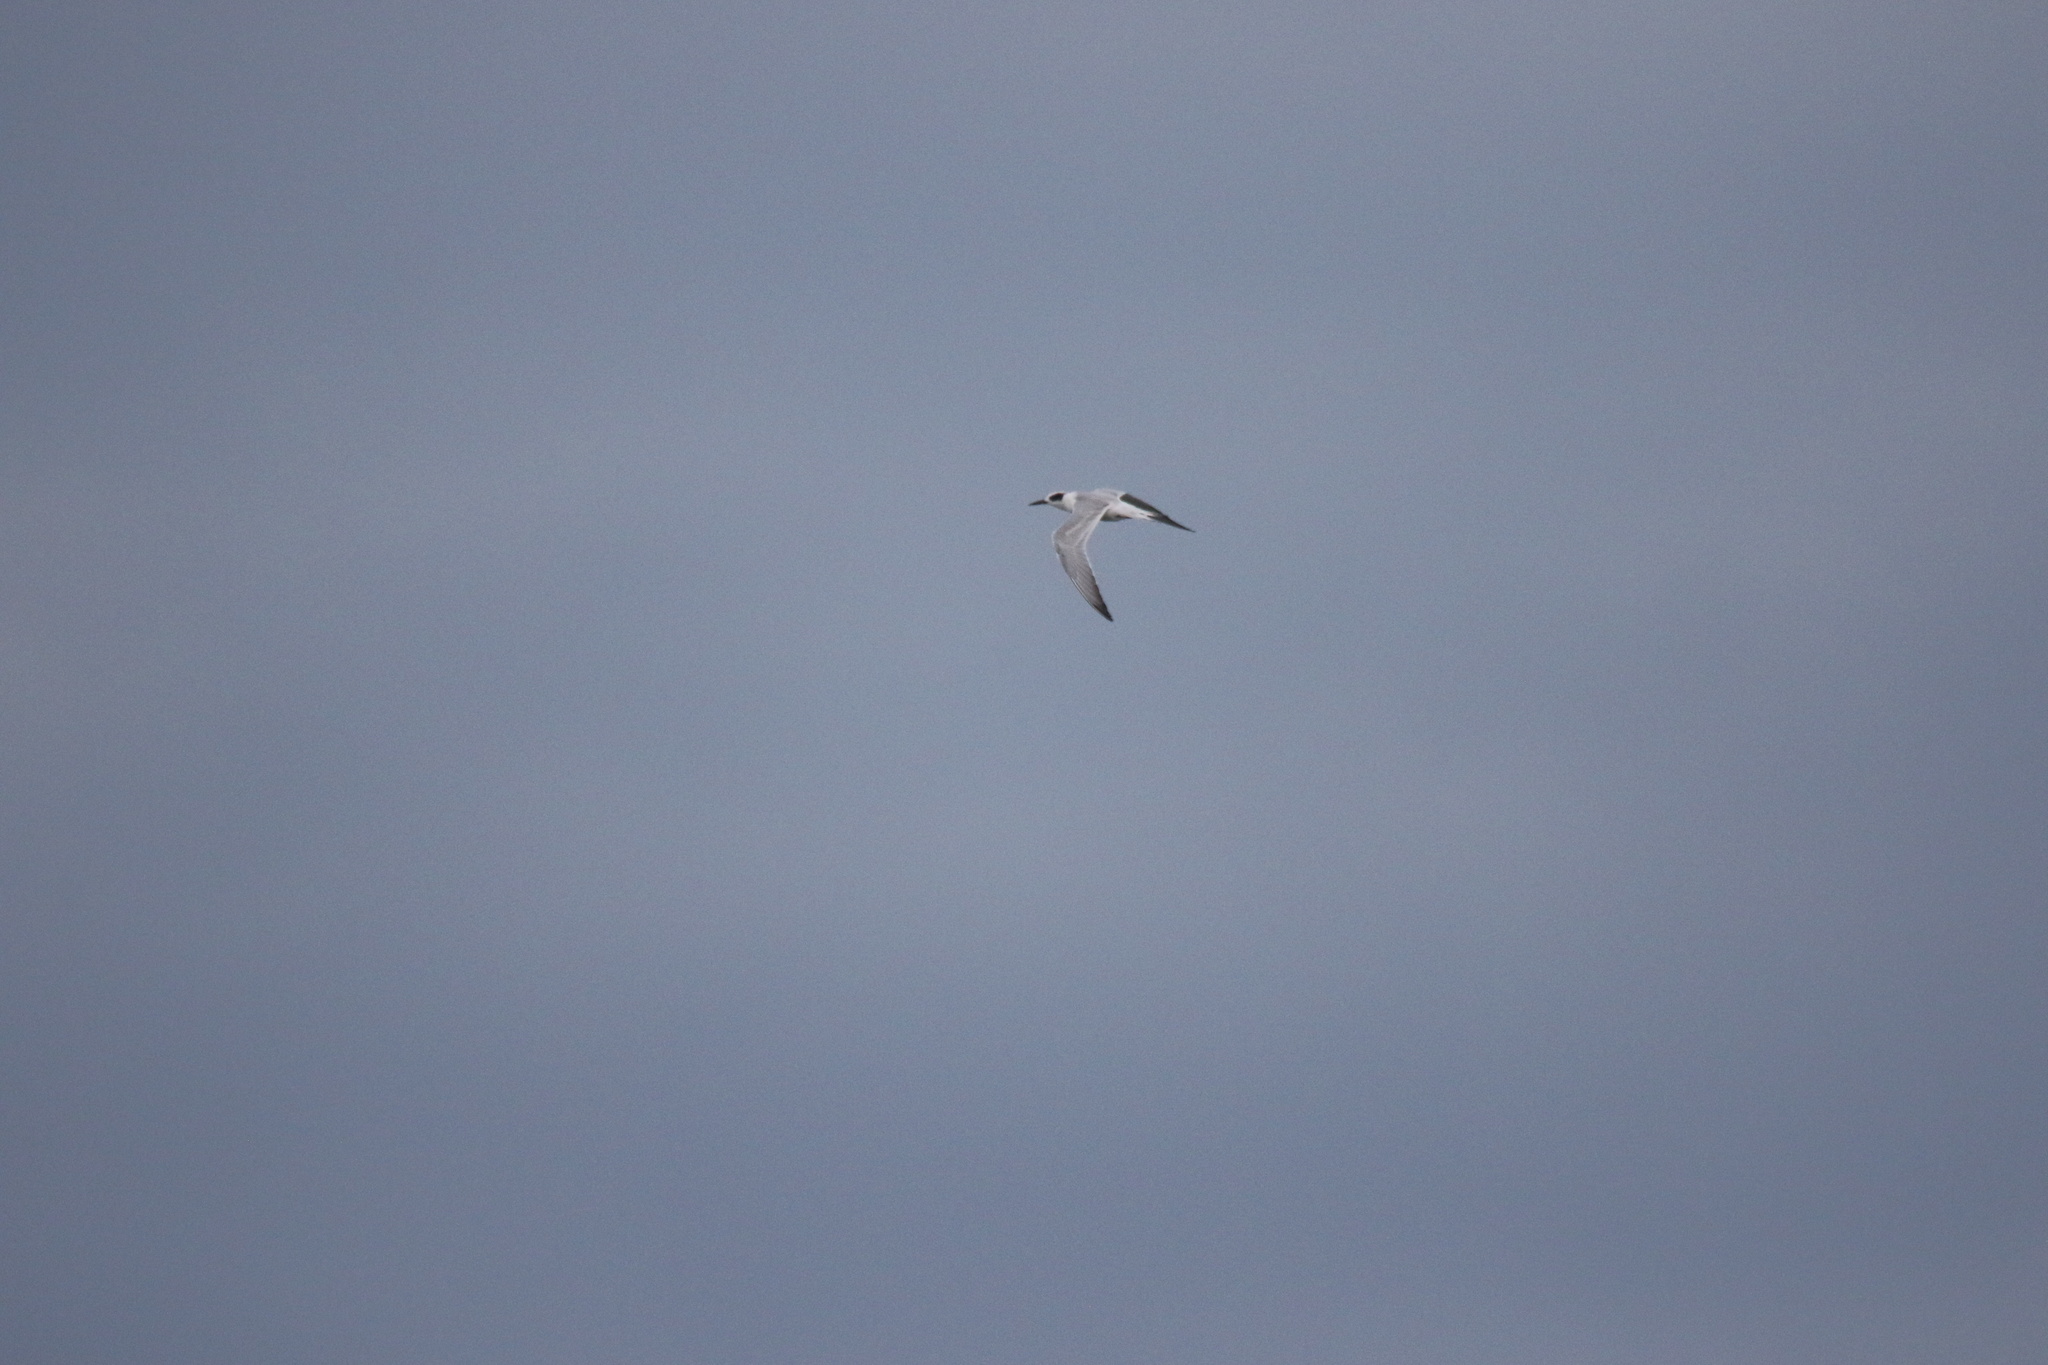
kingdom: Animalia
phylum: Chordata
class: Aves
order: Charadriiformes
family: Laridae
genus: Sterna
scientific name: Sterna forsteri
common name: Forster's tern
